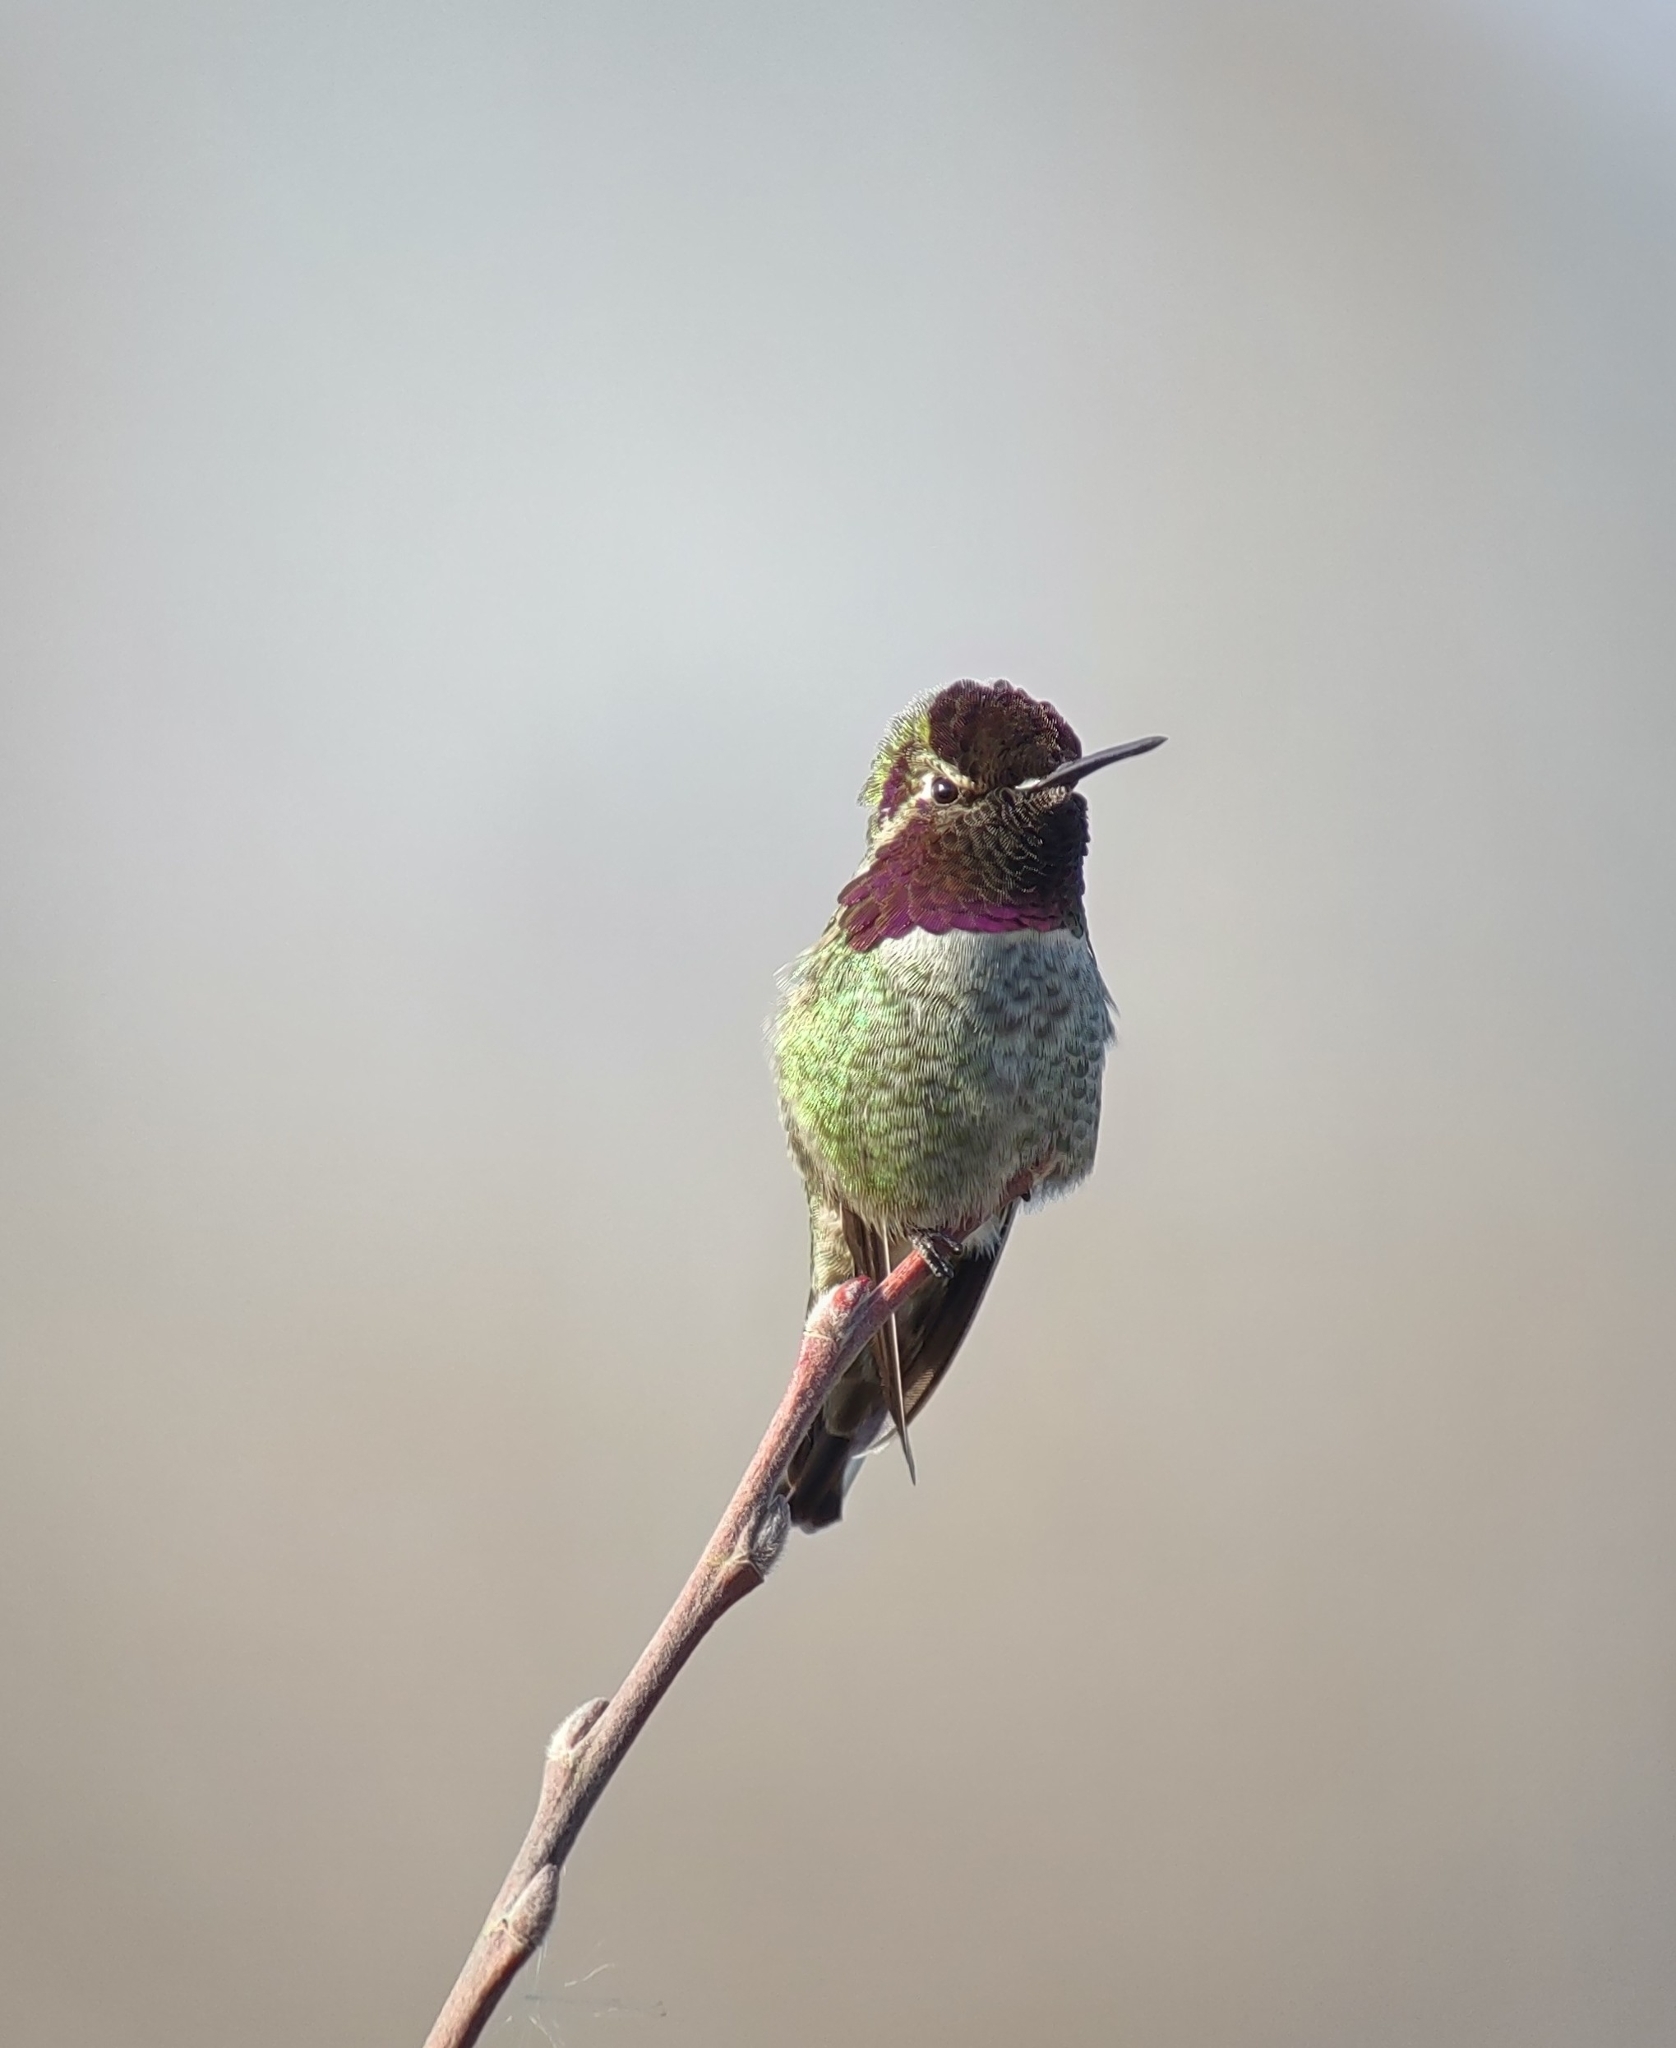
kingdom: Animalia
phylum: Chordata
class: Aves
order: Apodiformes
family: Trochilidae
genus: Calypte
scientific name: Calypte anna
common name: Anna's hummingbird
